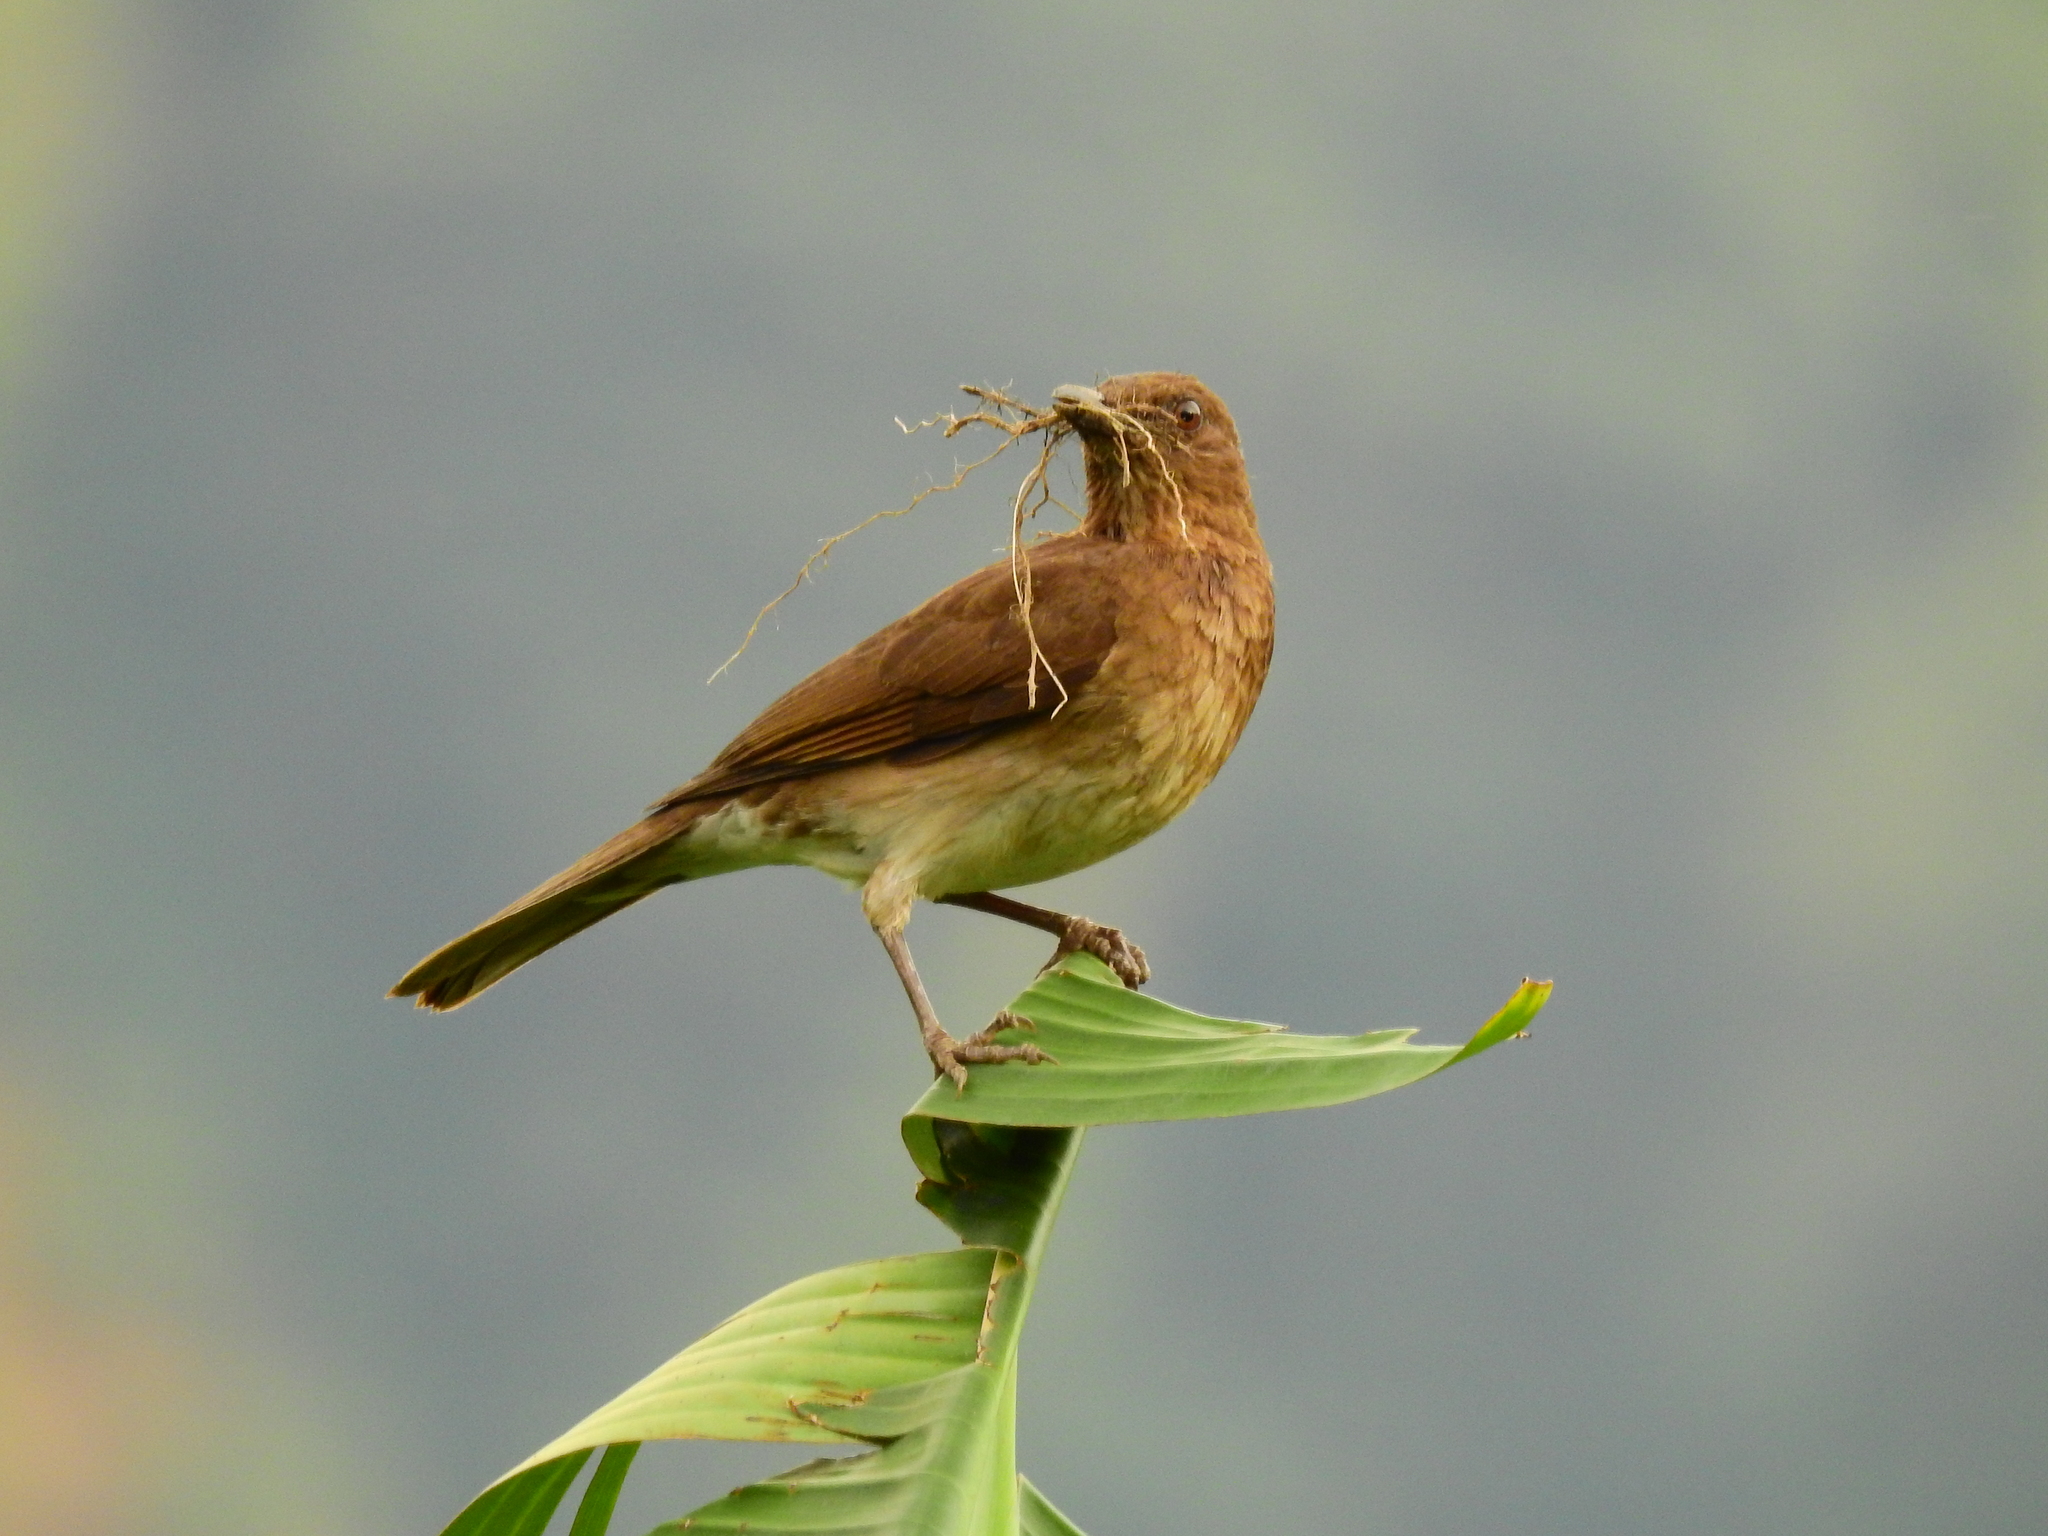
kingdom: Animalia
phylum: Chordata
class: Aves
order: Passeriformes
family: Turdidae
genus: Turdus
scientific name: Turdus ignobilis
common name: Black-billed thrush
